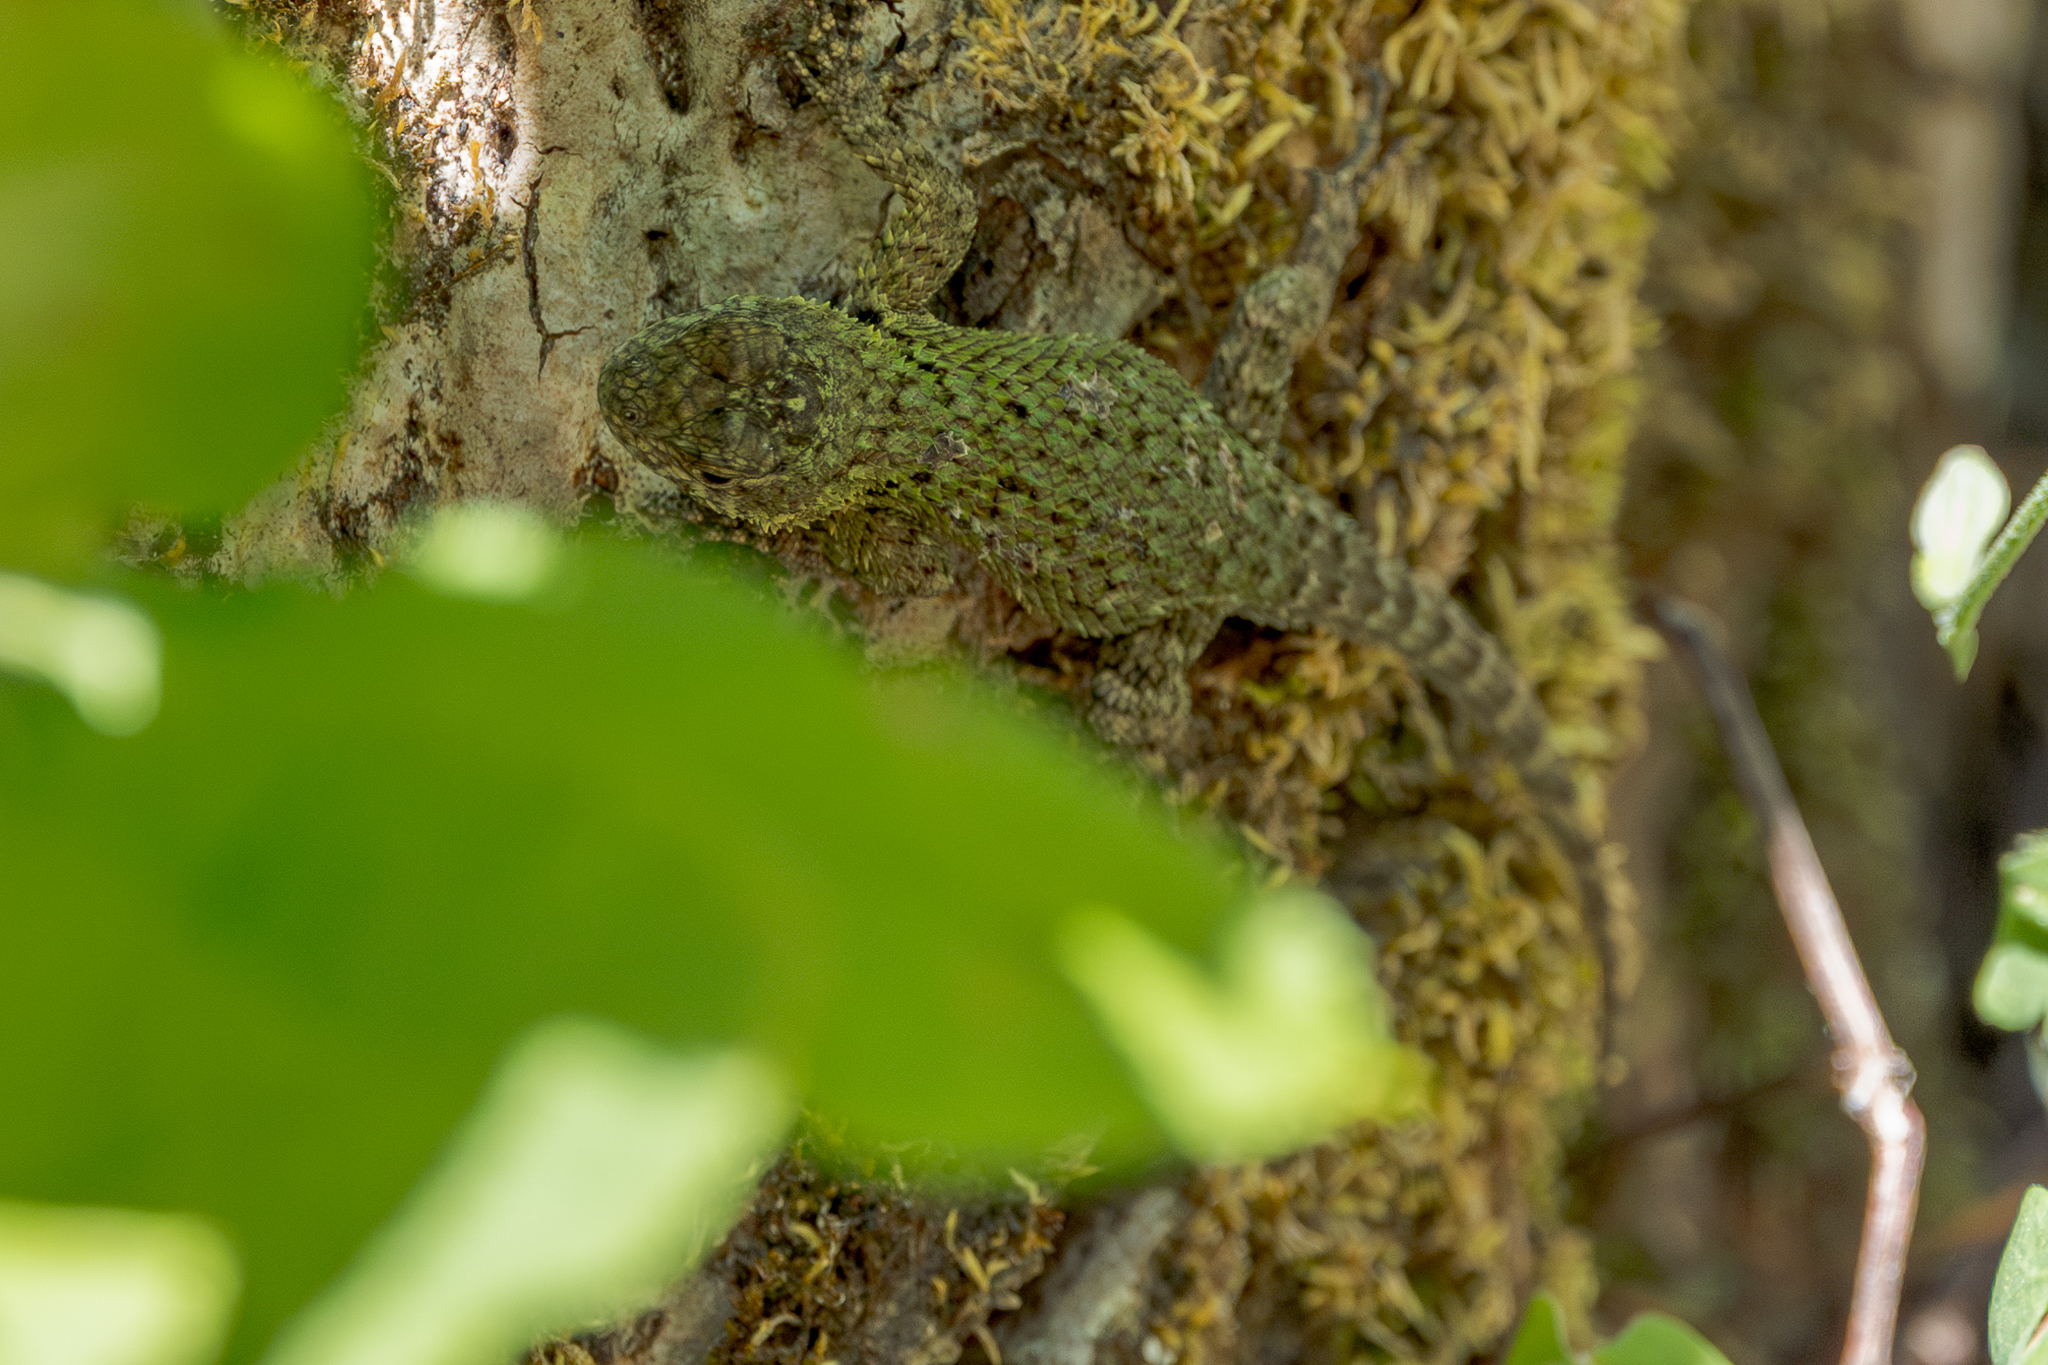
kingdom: Animalia
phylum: Chordata
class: Squamata
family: Phrynosomatidae
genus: Sceloporus
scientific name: Sceloporus malachiticus
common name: Green spiny lizard
